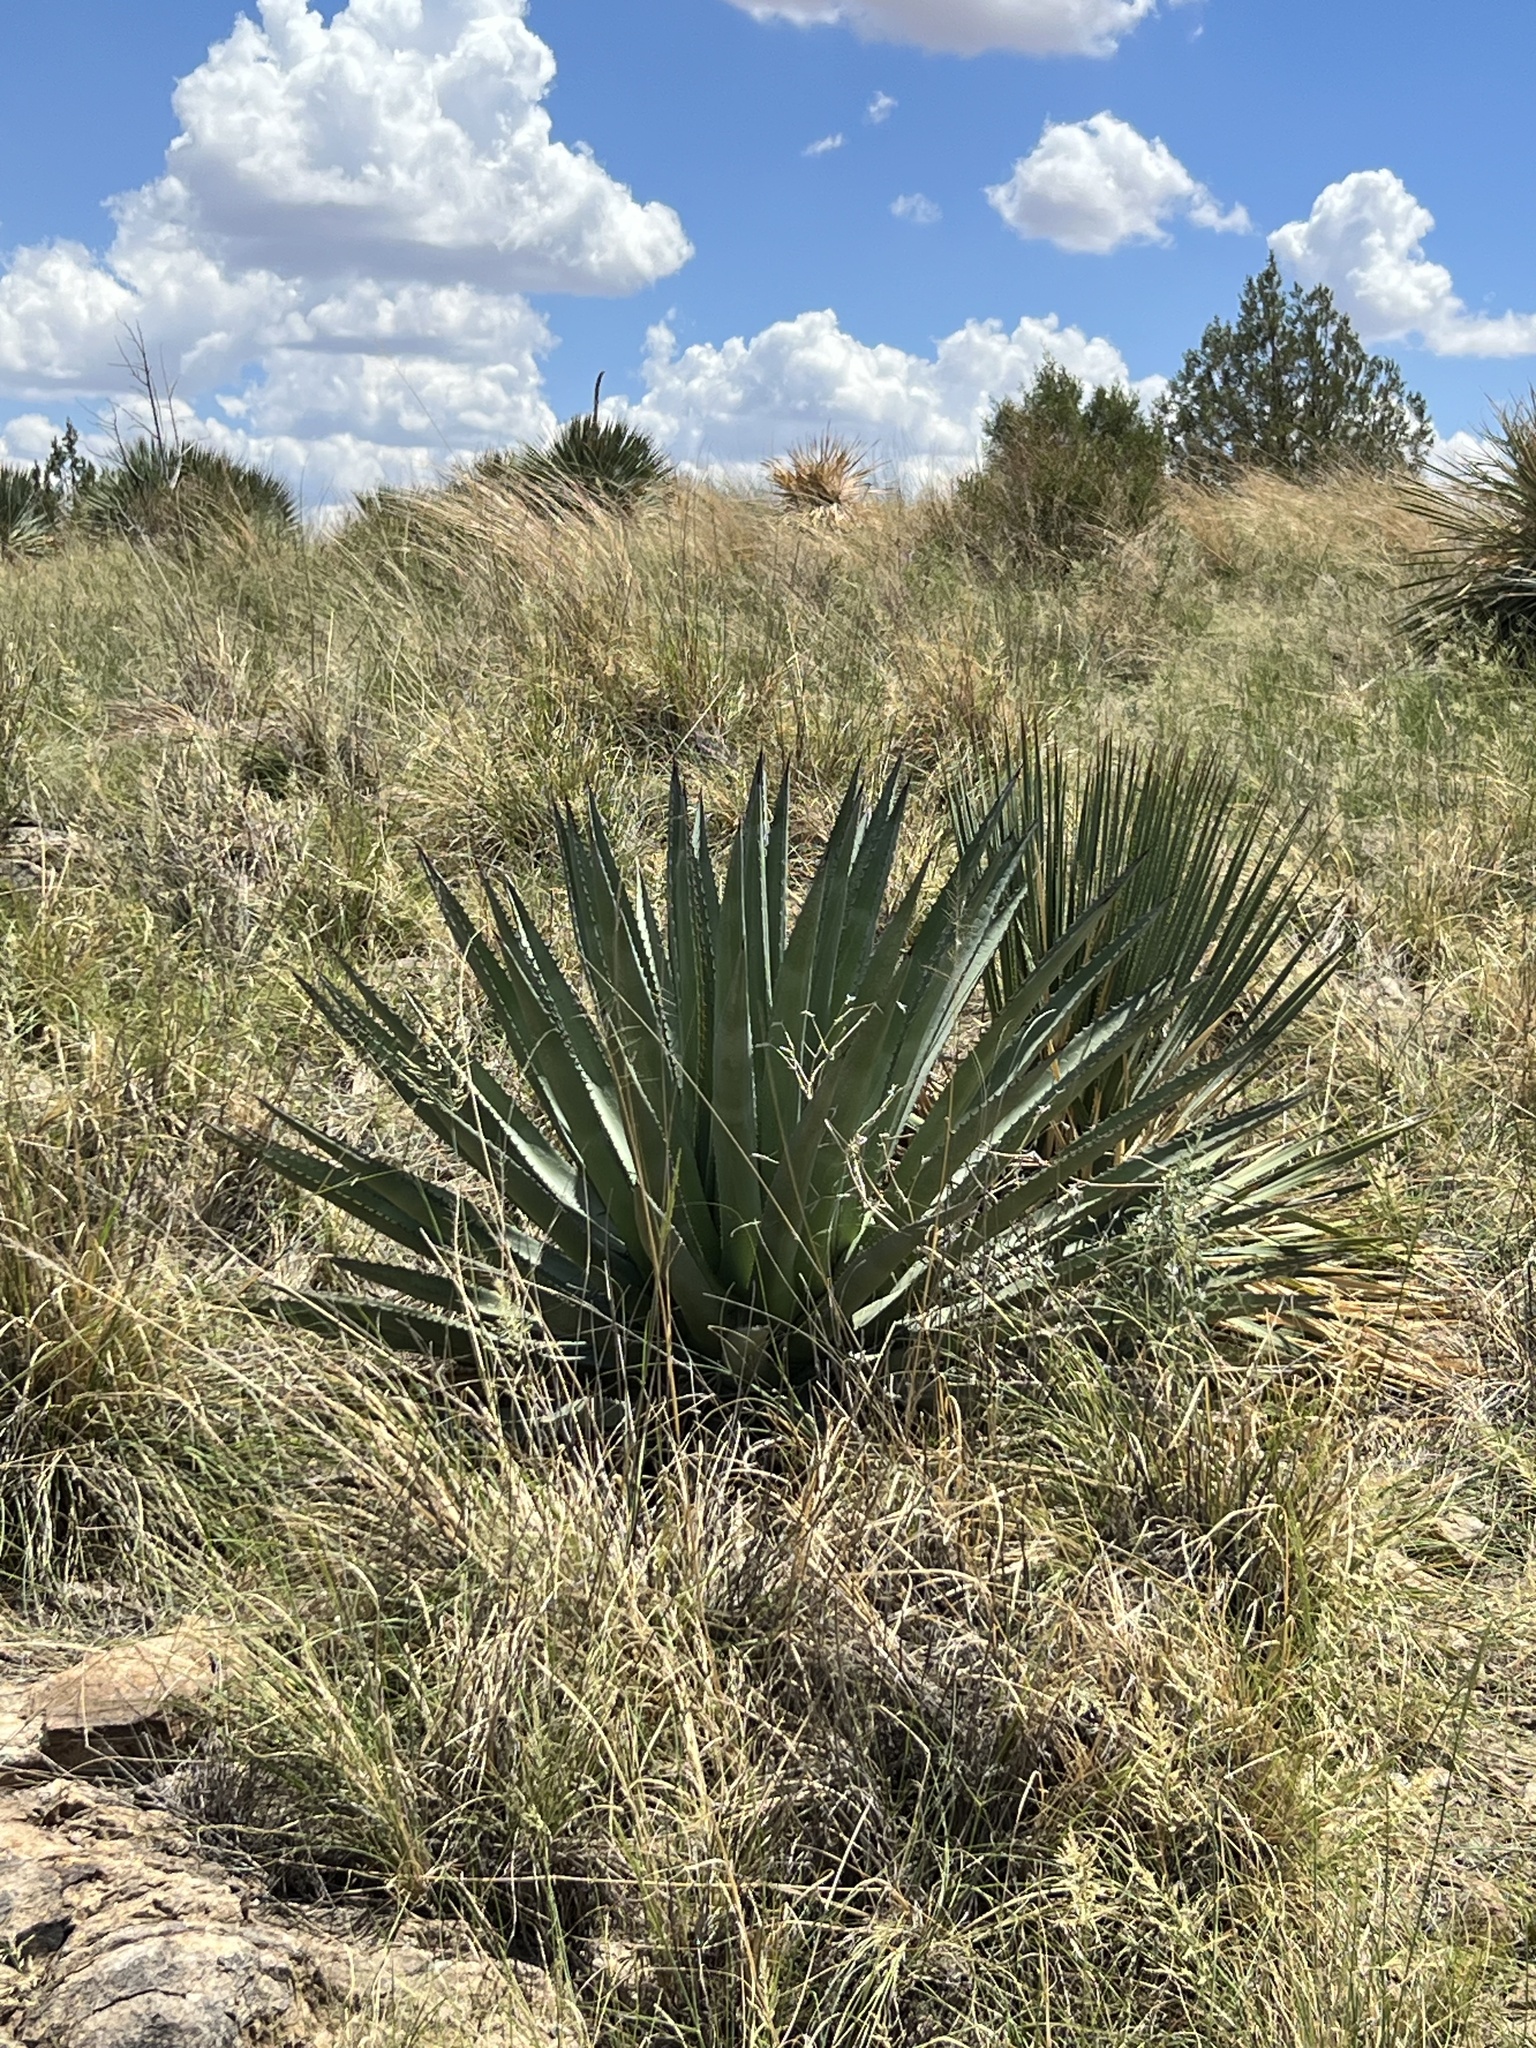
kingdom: Plantae
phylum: Tracheophyta
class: Liliopsida
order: Asparagales
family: Asparagaceae
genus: Agave
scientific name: Agave palmeri
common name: Palmer agave
